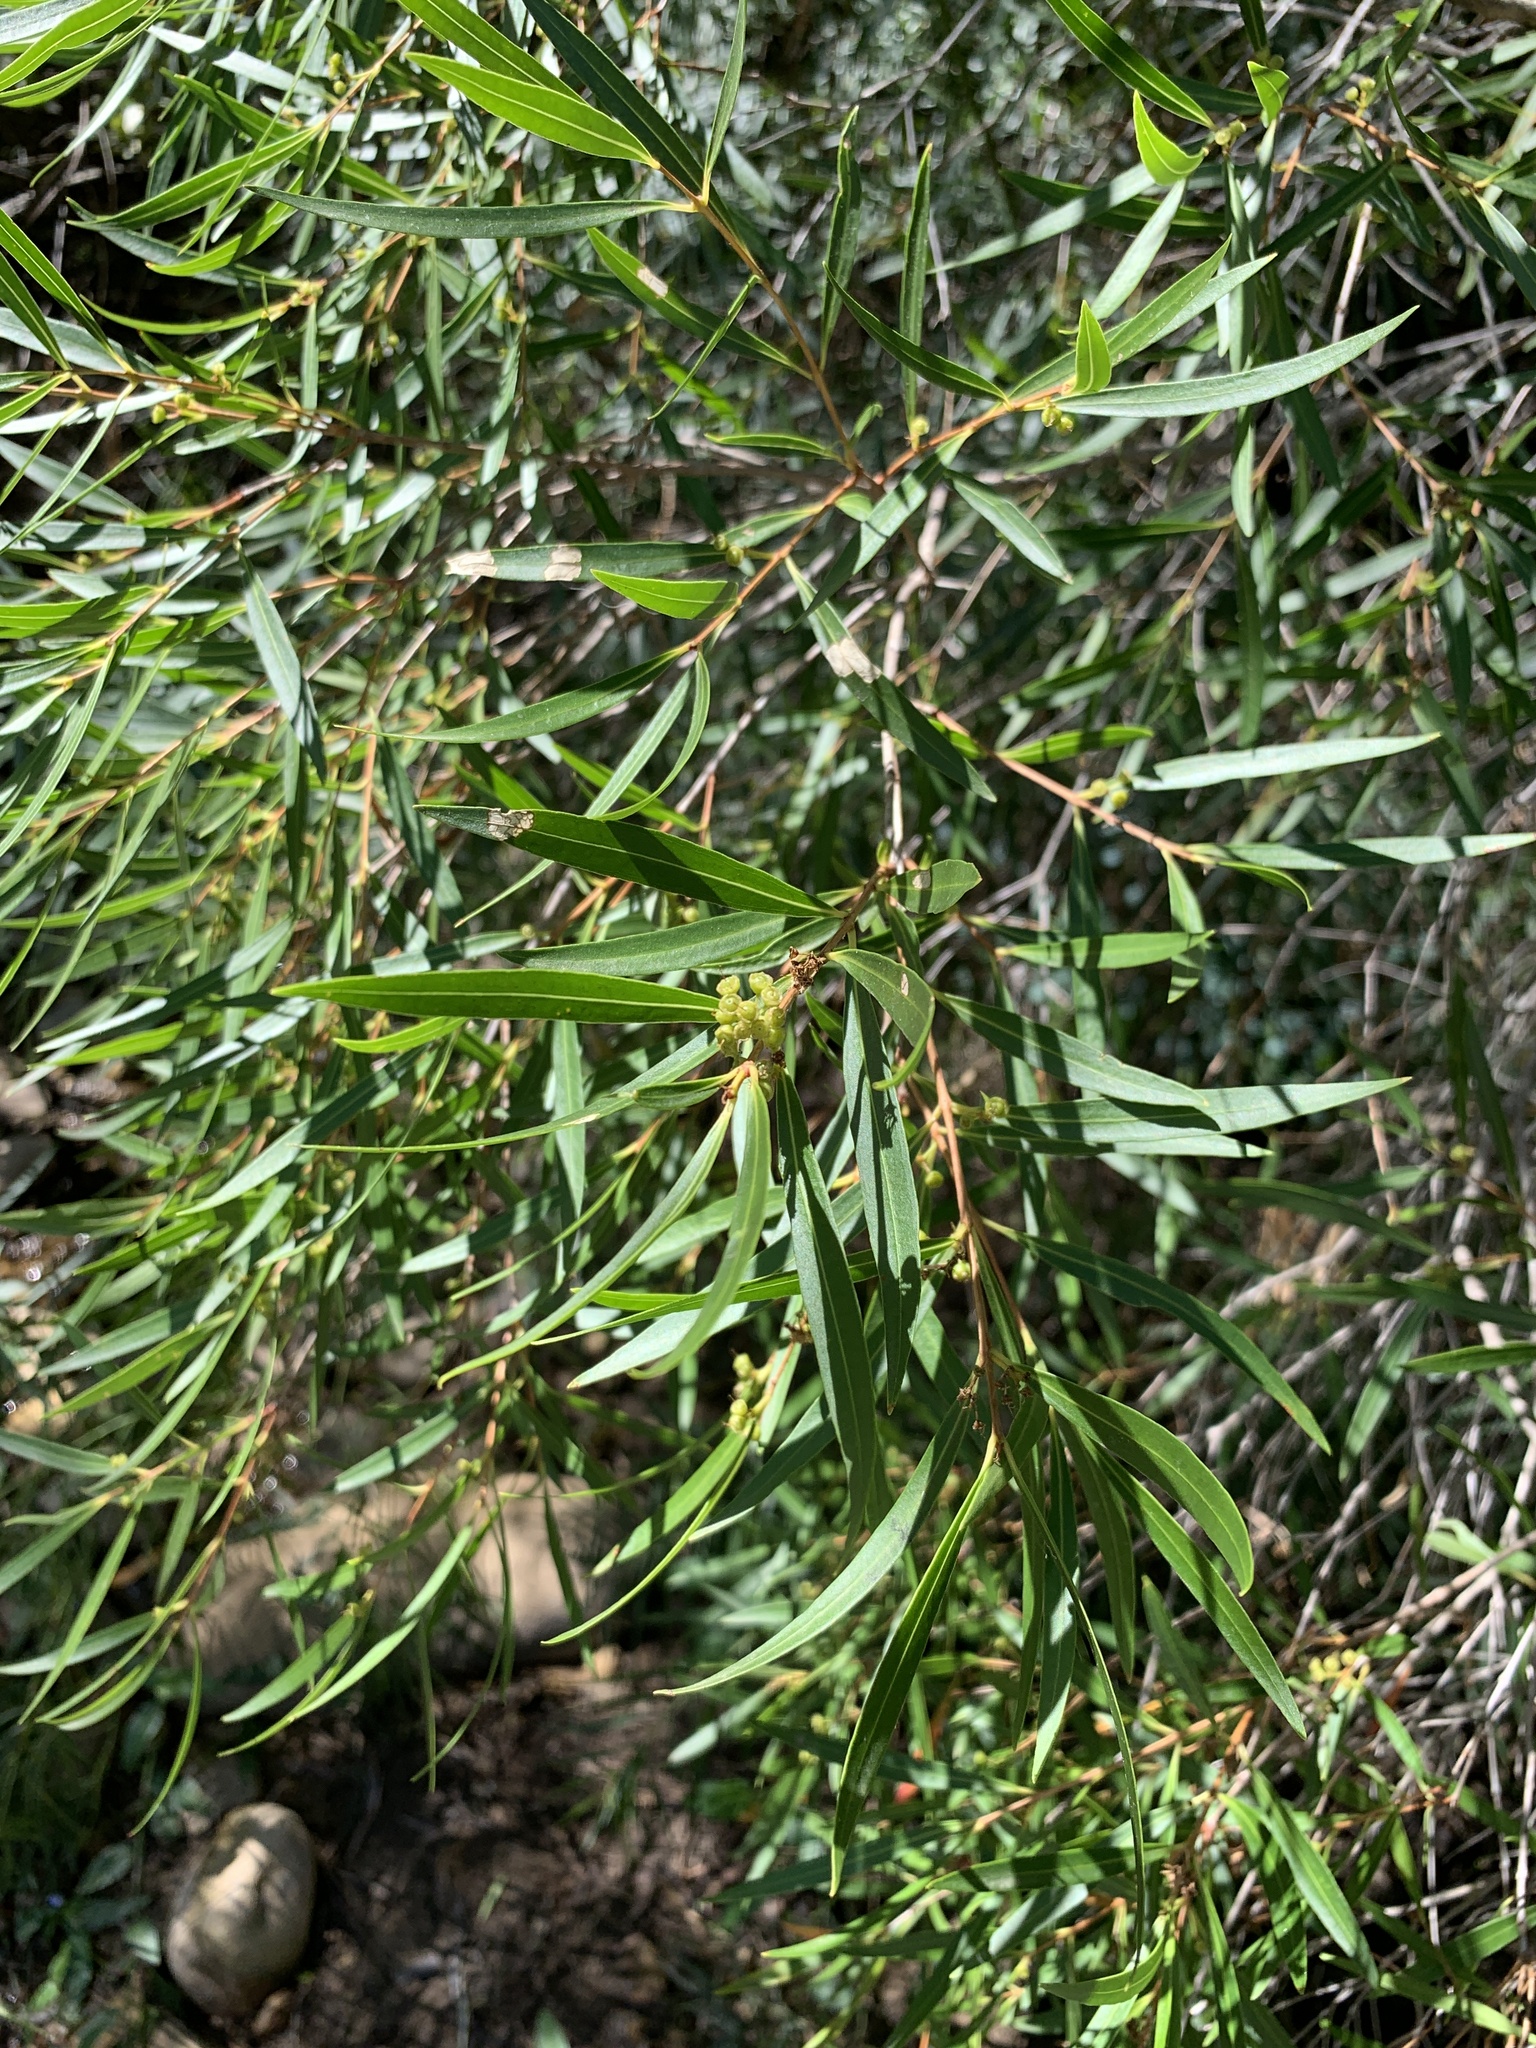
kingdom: Plantae
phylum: Tracheophyta
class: Magnoliopsida
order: Myrtales
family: Myrtaceae
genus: Callistemon
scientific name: Callistemon lanceolatus
